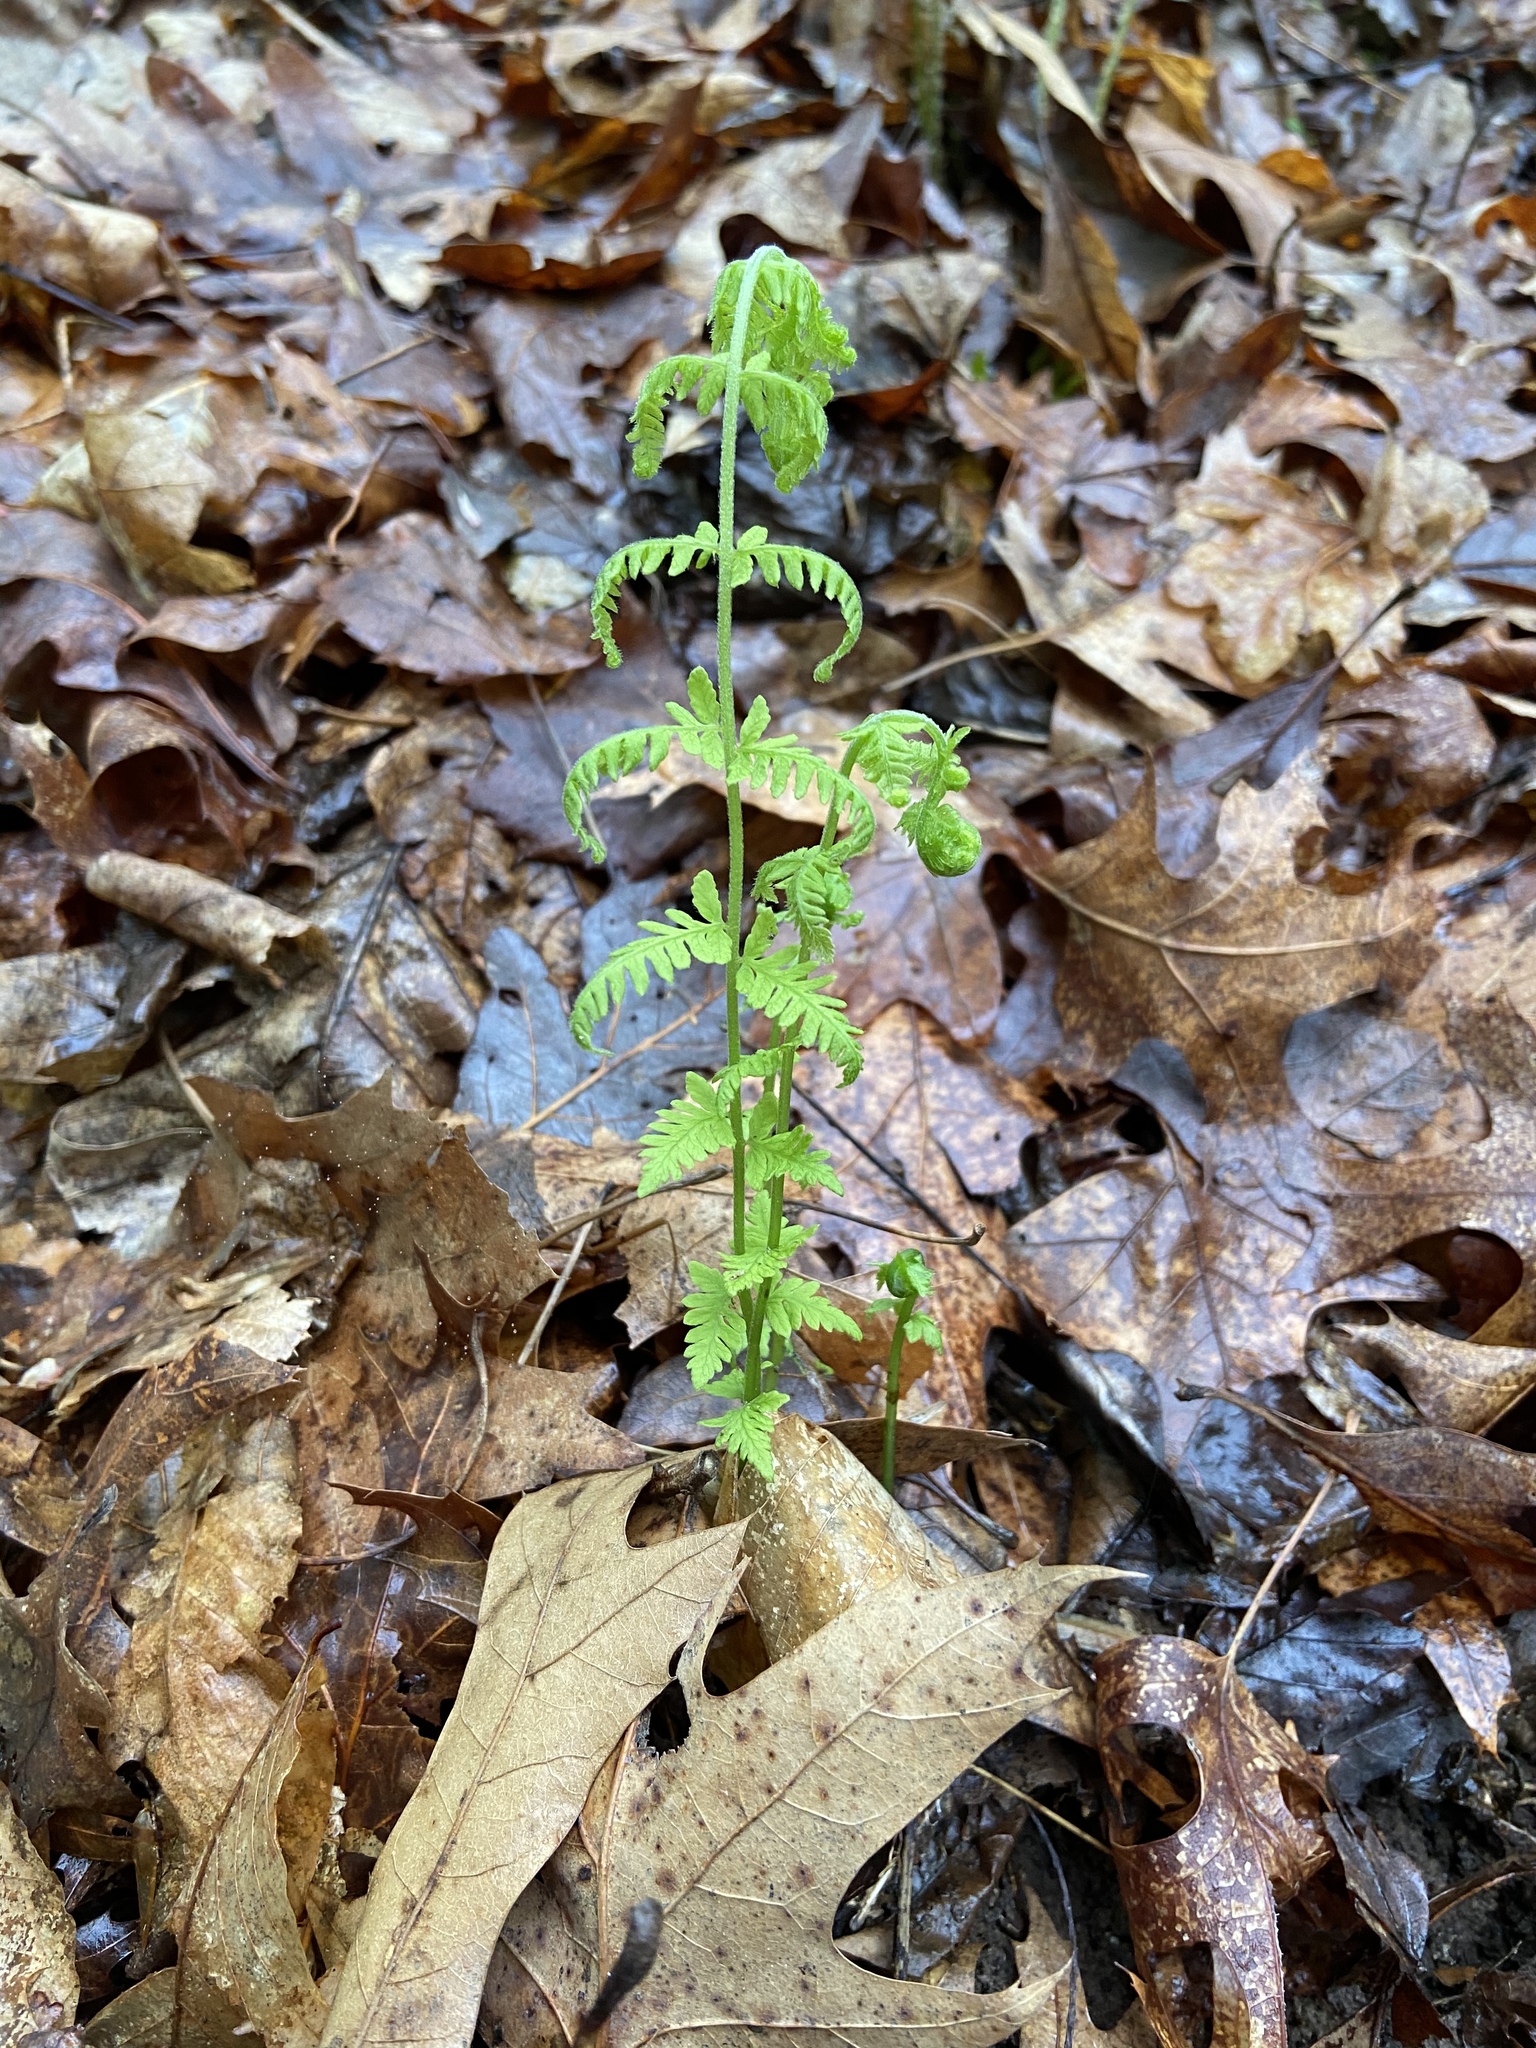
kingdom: Plantae
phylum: Tracheophyta
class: Polypodiopsida
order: Polypodiales
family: Thelypteridaceae
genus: Amauropelta
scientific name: Amauropelta noveboracensis
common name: New york fern
